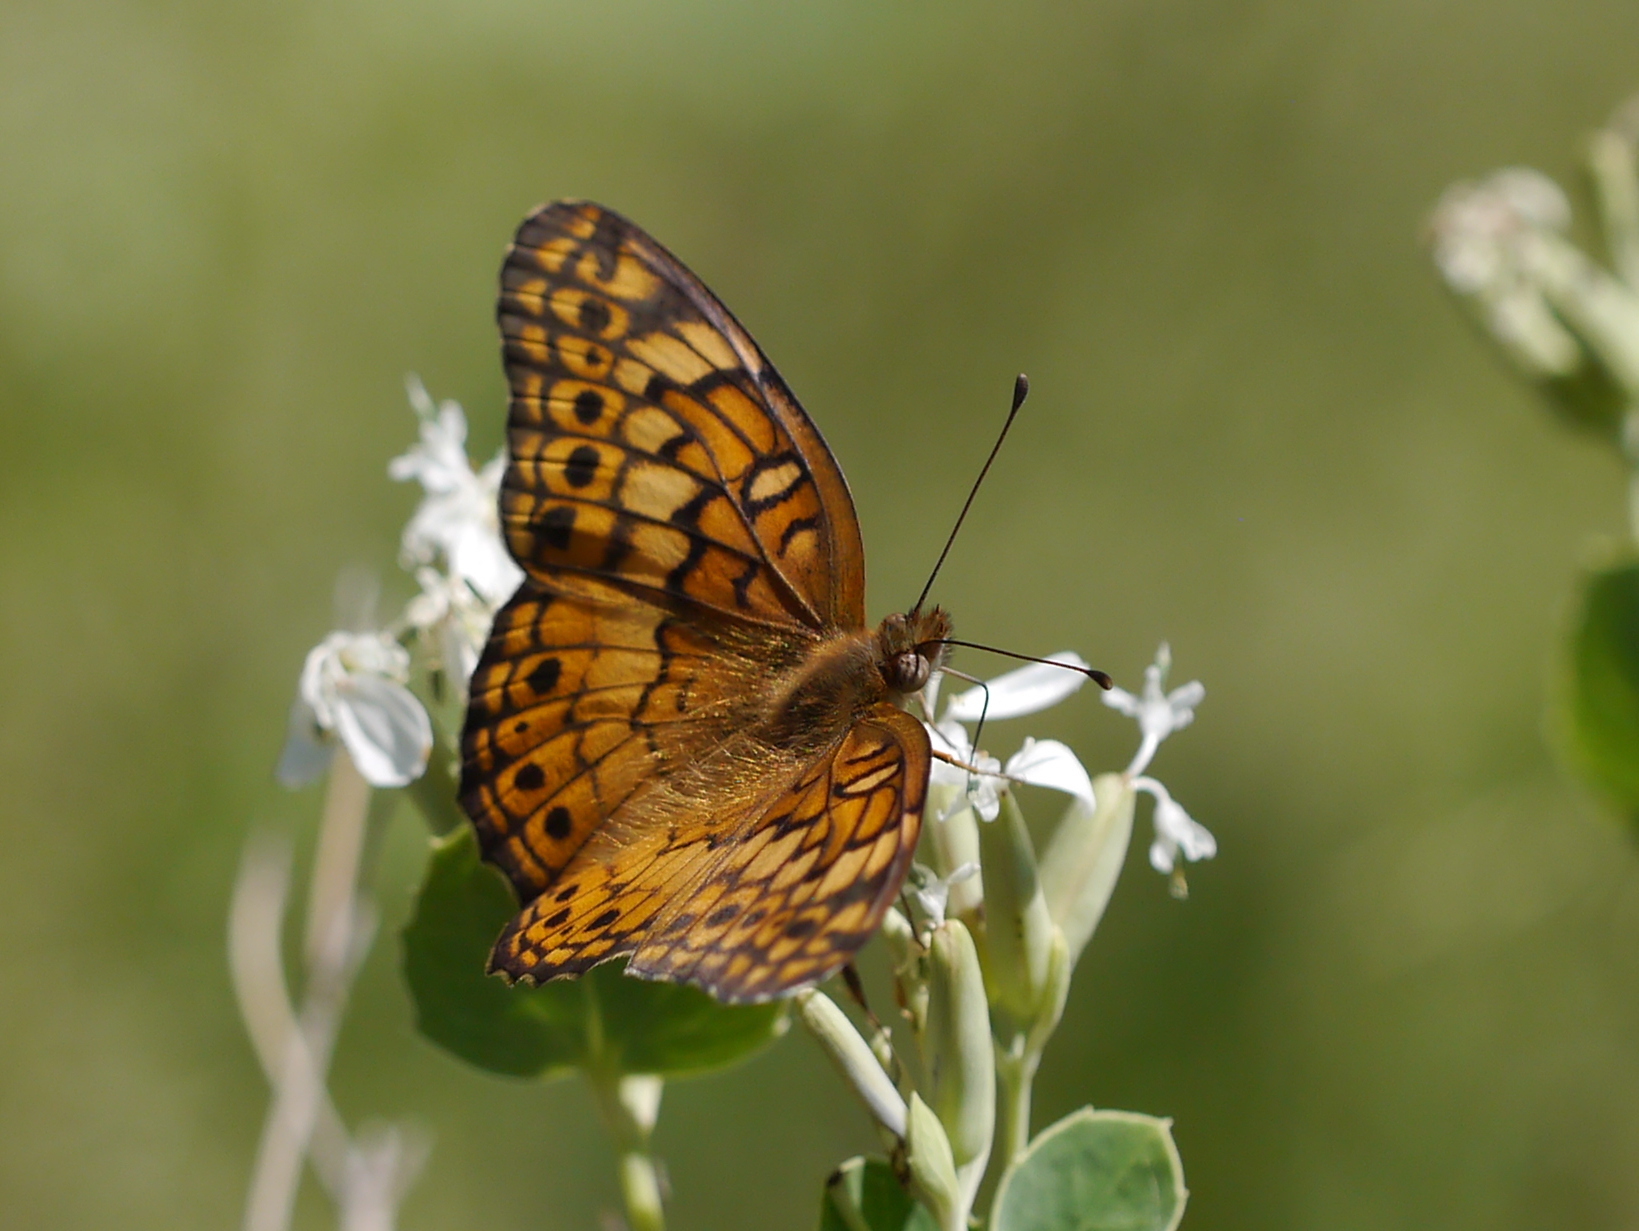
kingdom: Animalia
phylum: Arthropoda
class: Insecta
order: Lepidoptera
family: Nymphalidae
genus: Euptoieta
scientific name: Euptoieta claudia
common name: Variegated fritillary
